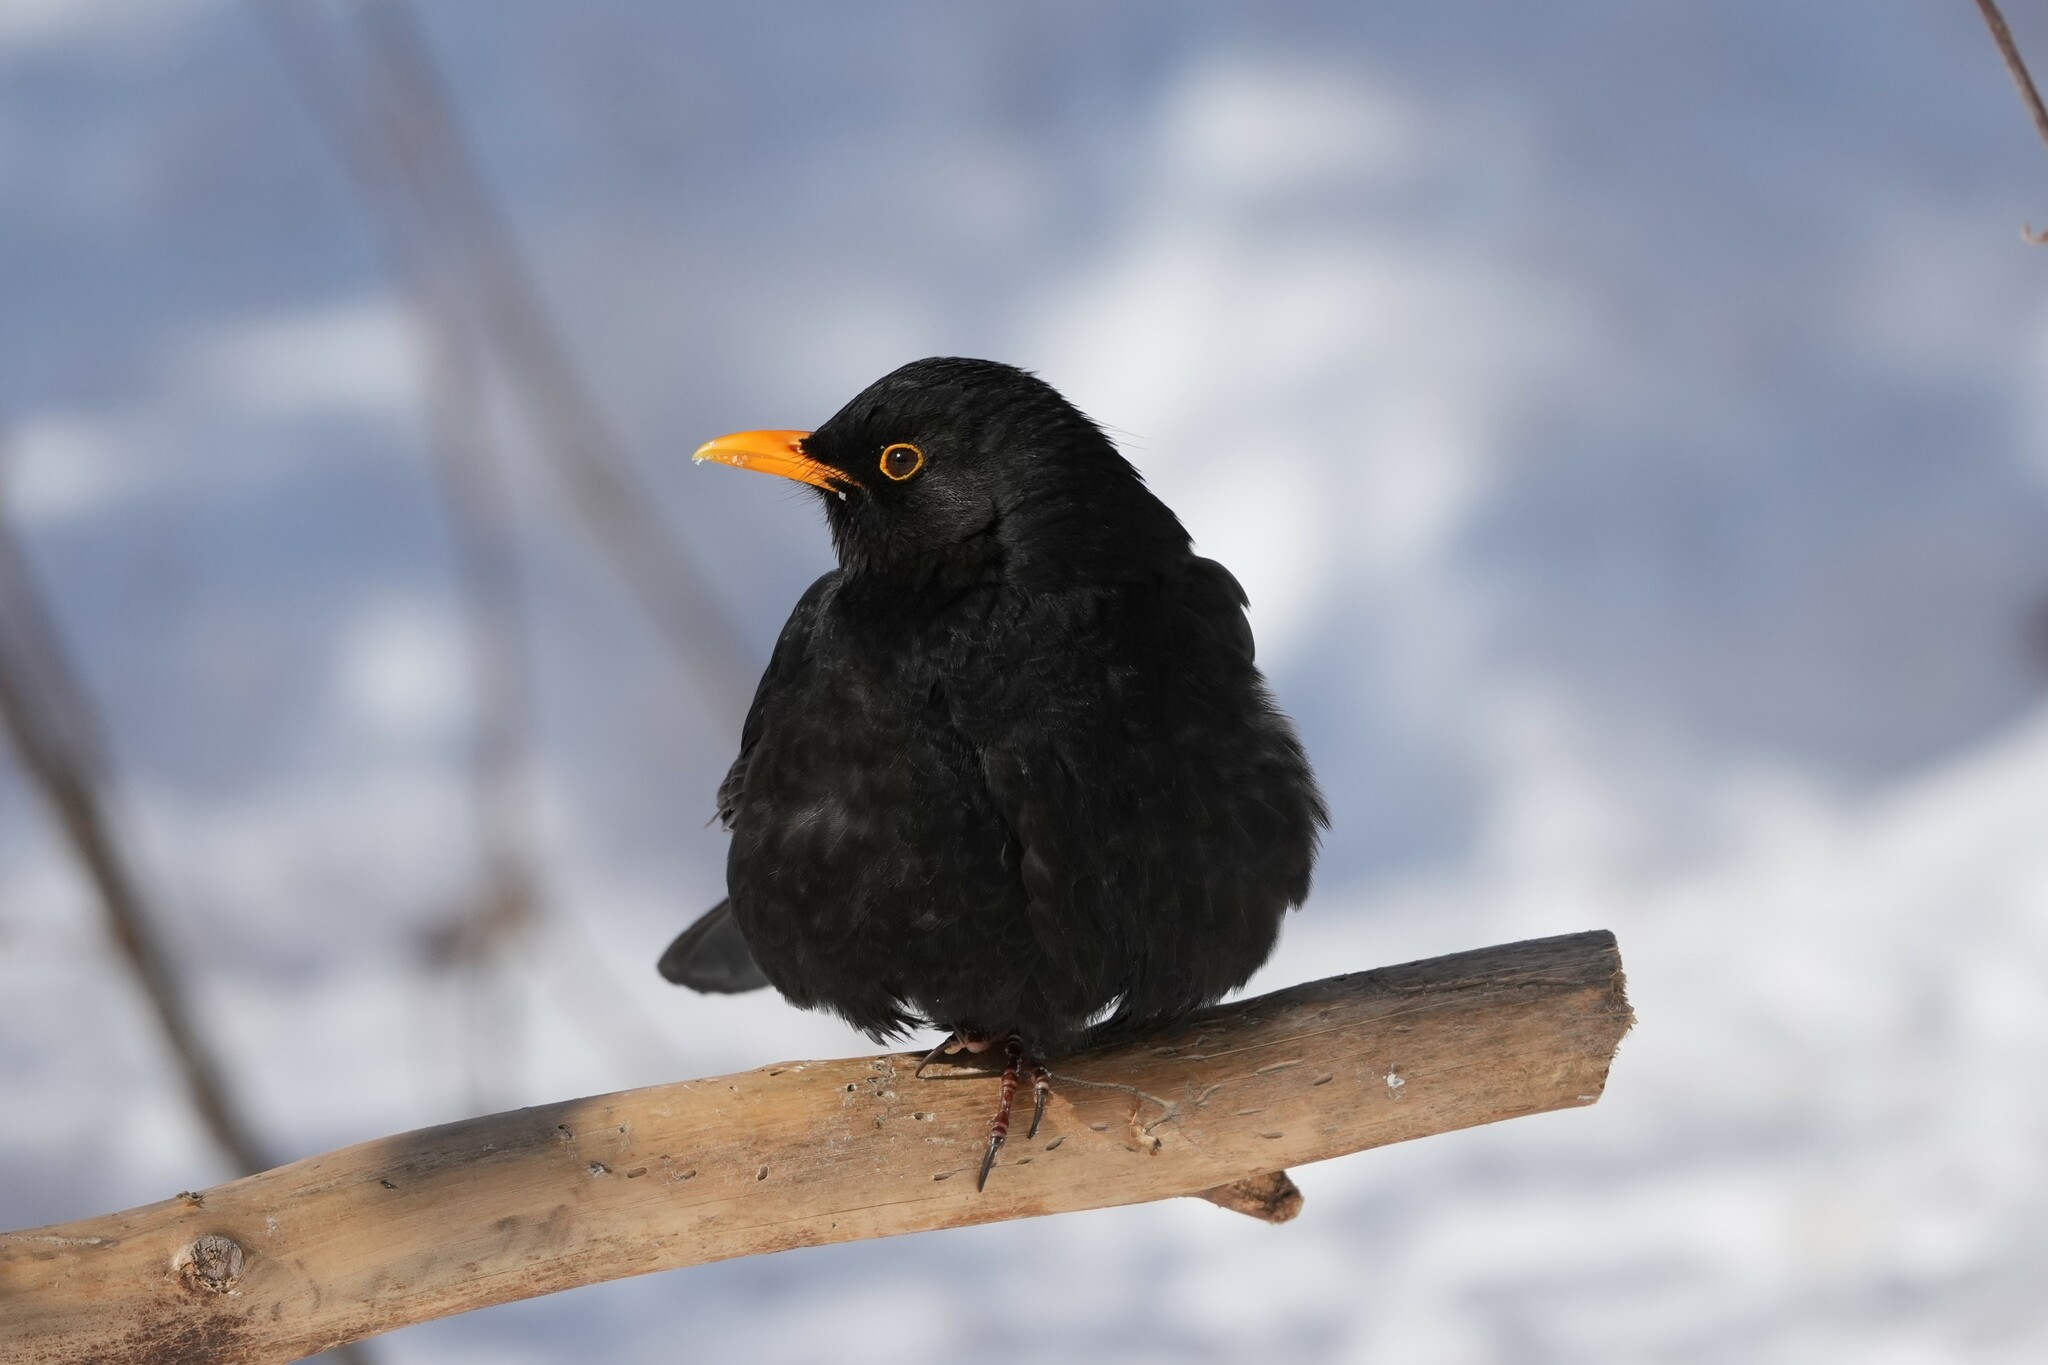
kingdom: Animalia
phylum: Chordata
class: Aves
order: Passeriformes
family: Turdidae
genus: Turdus
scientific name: Turdus merula
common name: Common blackbird
